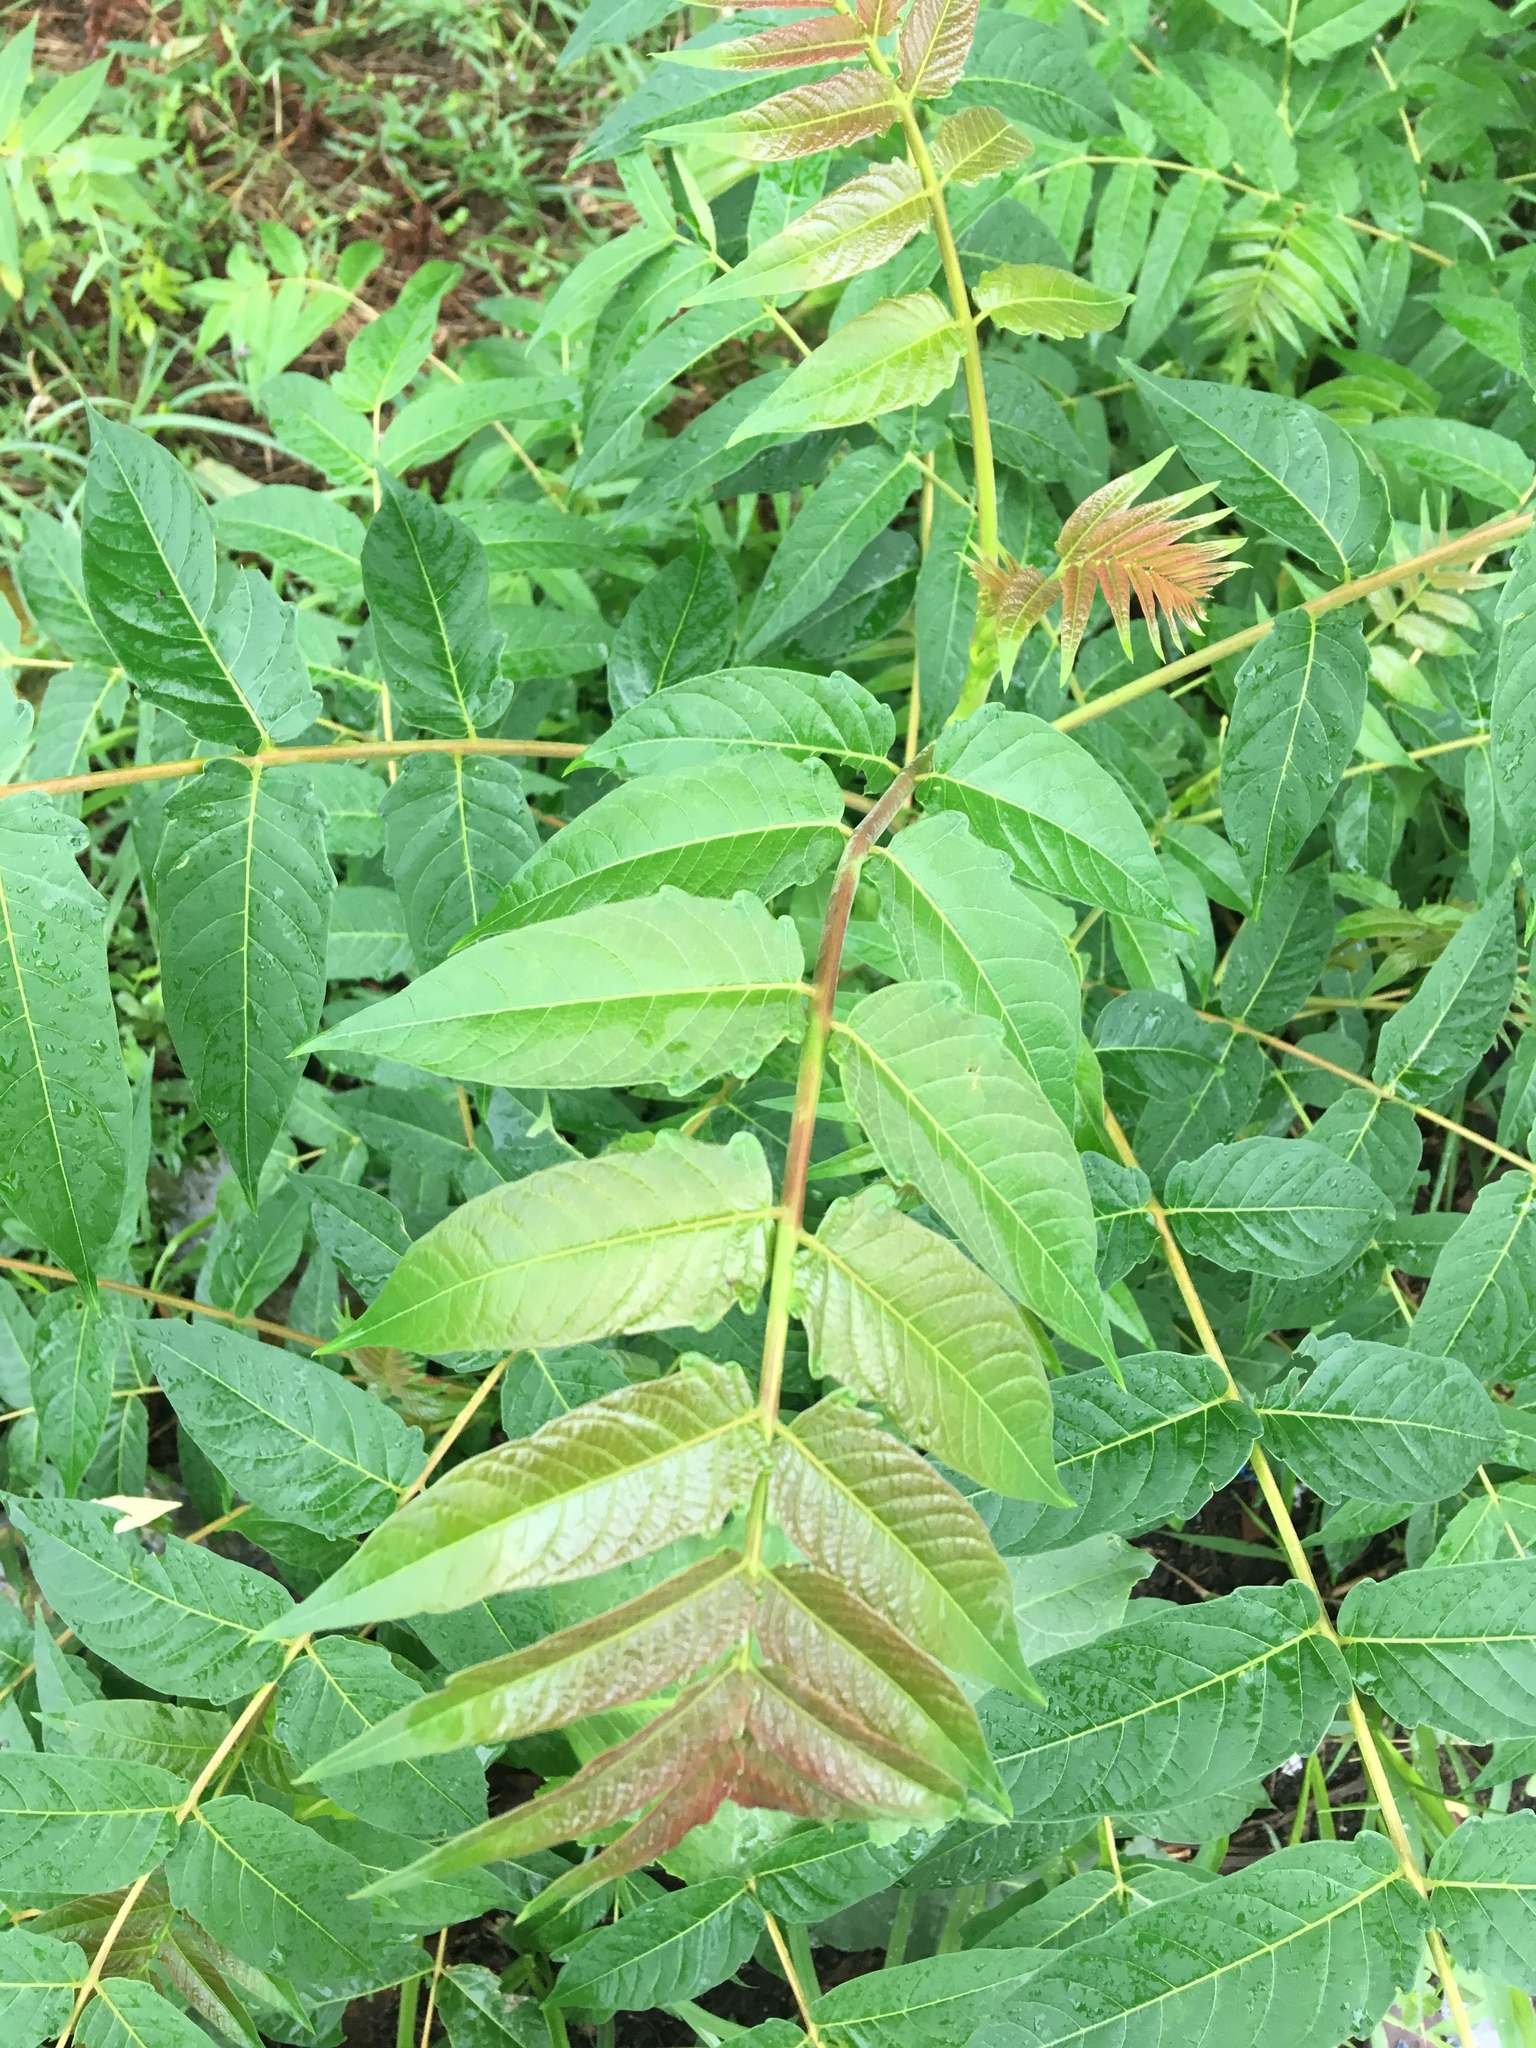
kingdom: Plantae
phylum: Tracheophyta
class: Magnoliopsida
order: Sapindales
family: Simaroubaceae
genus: Ailanthus
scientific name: Ailanthus altissima
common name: Tree-of-heaven
